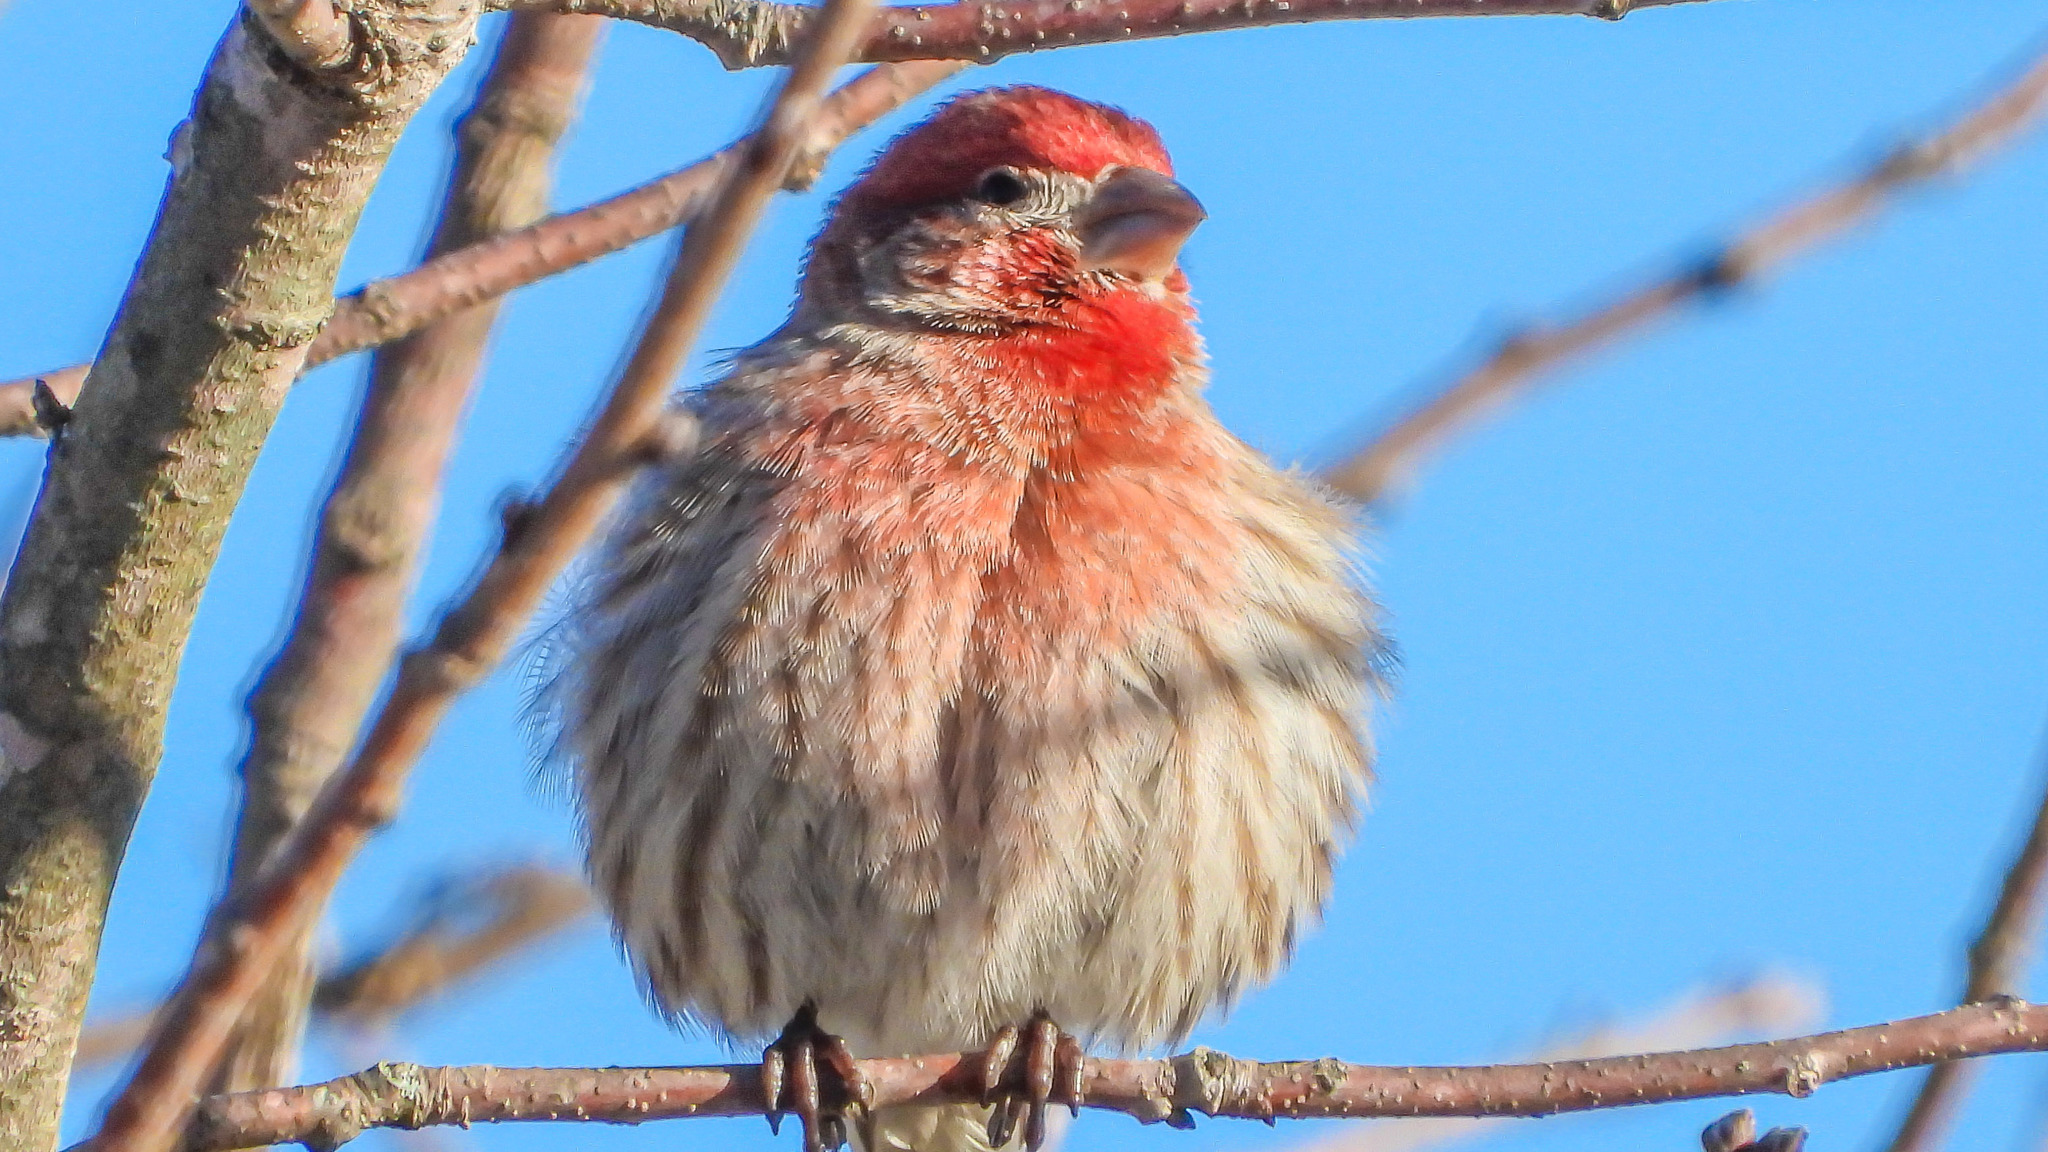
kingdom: Animalia
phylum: Chordata
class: Aves
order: Passeriformes
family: Fringillidae
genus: Haemorhous
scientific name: Haemorhous mexicanus
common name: House finch
